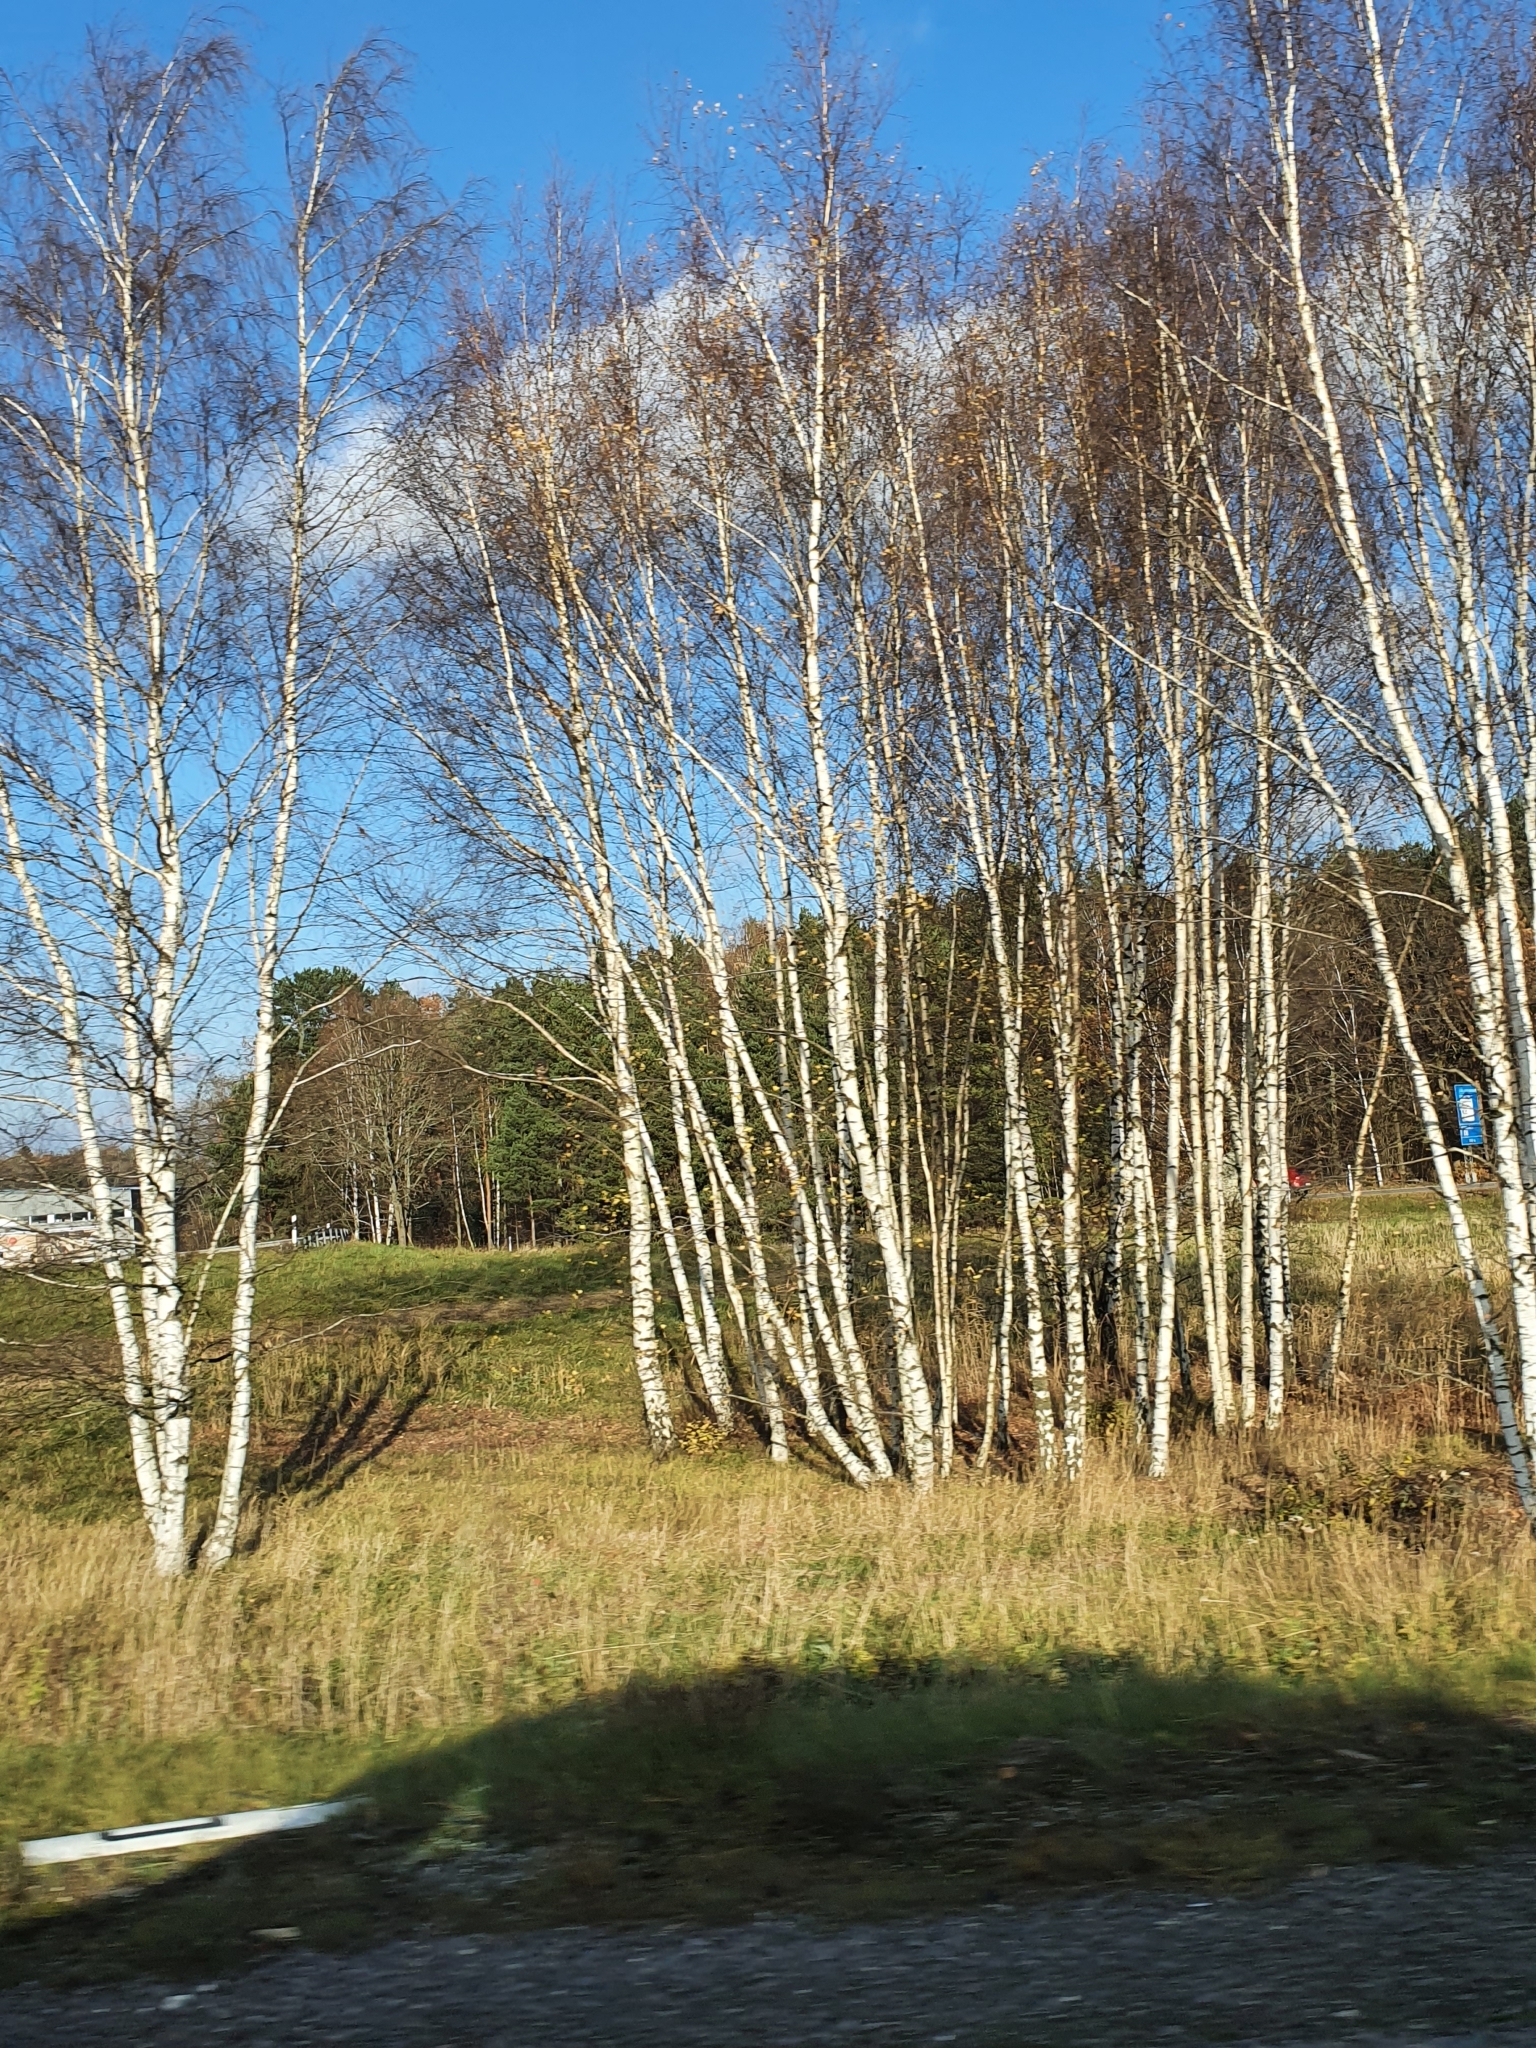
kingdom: Plantae
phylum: Tracheophyta
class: Magnoliopsida
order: Fagales
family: Betulaceae
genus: Betula
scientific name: Betula pendula
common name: Silver birch
